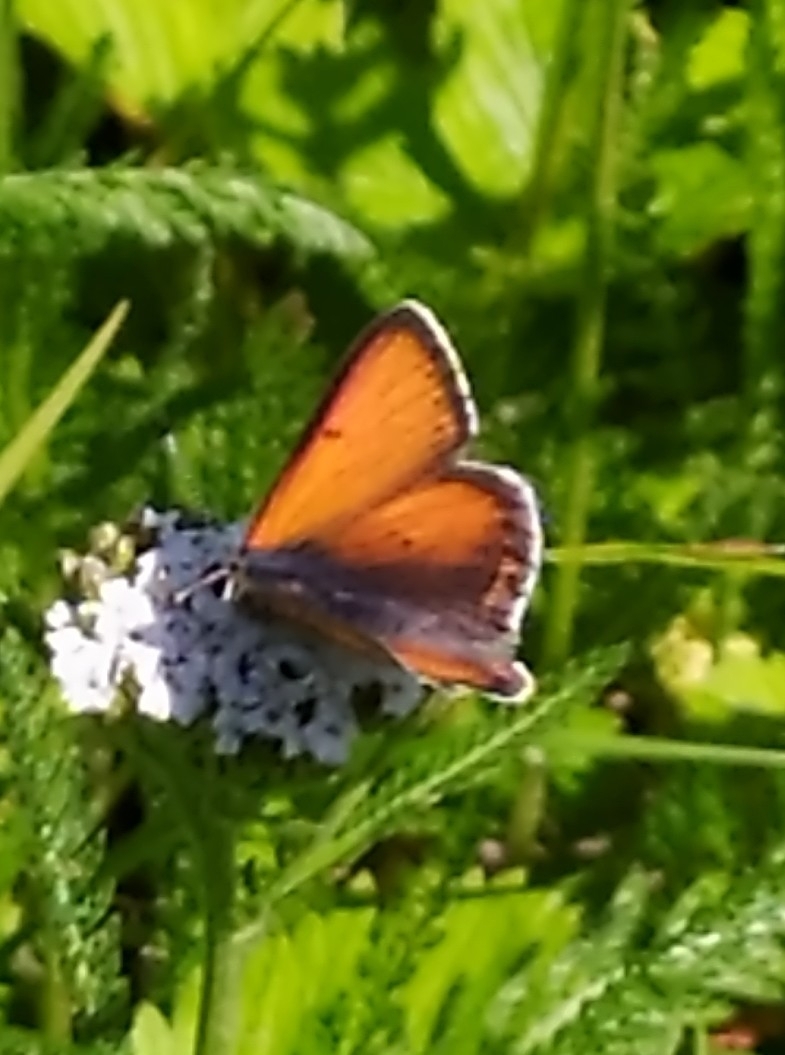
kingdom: Animalia
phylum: Arthropoda
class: Insecta
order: Lepidoptera
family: Lycaenidae
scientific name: Lycaenidae
